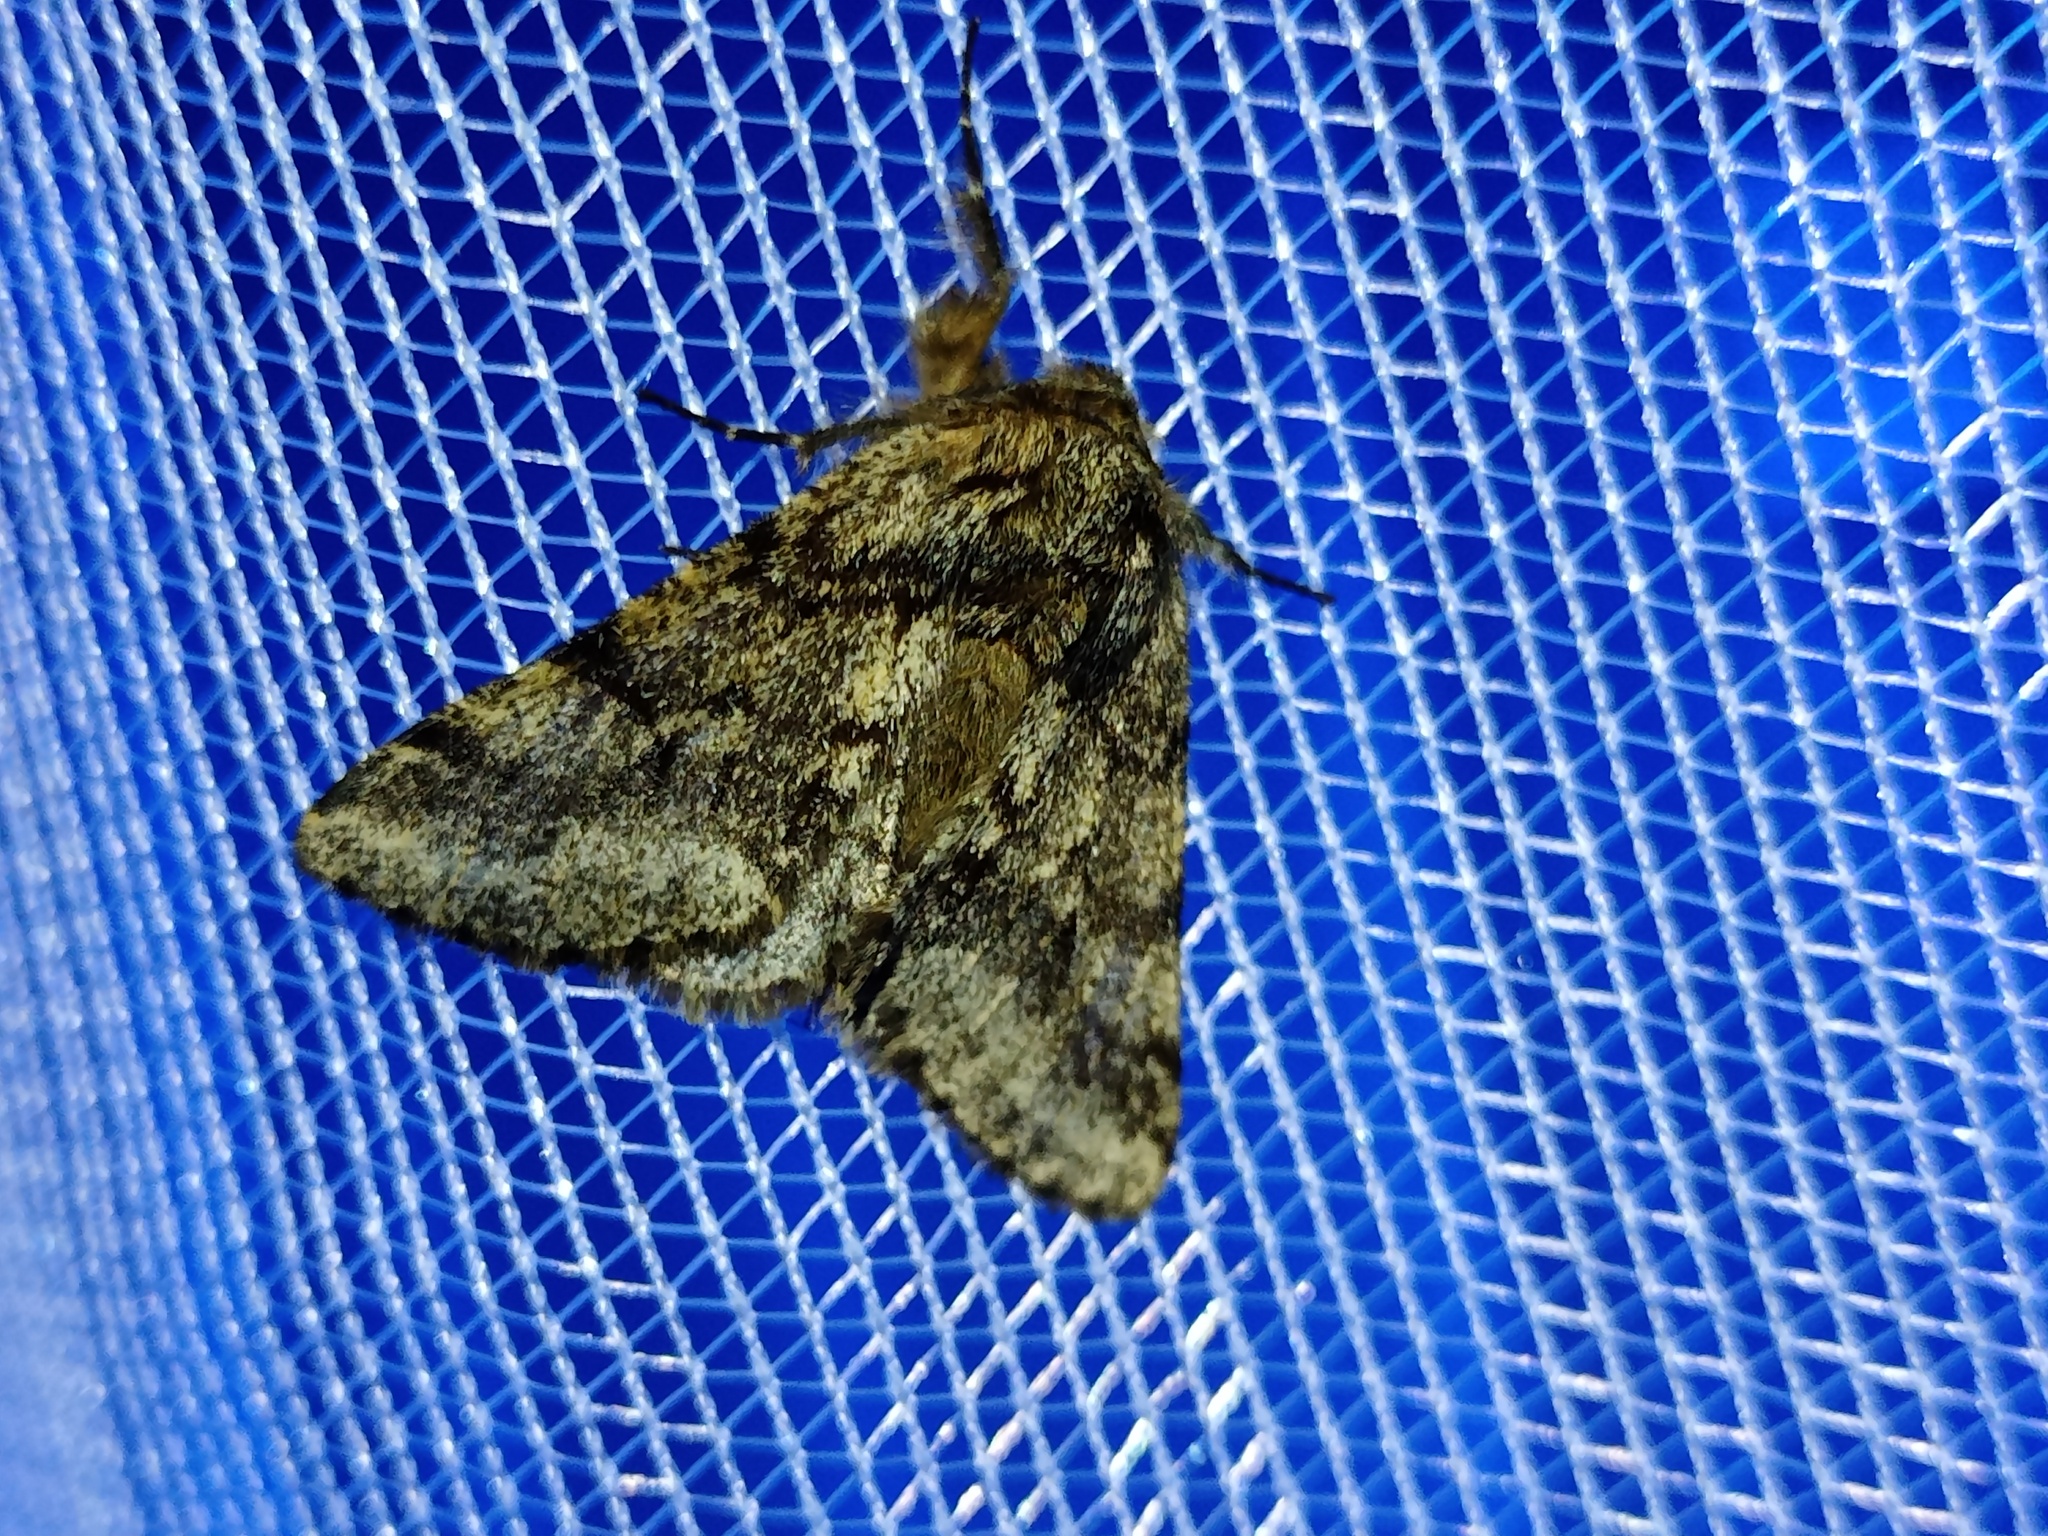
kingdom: Animalia
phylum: Arthropoda
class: Insecta
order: Lepidoptera
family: Geometridae
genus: Lycia
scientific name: Lycia hirtaria
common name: Brindled beauty
